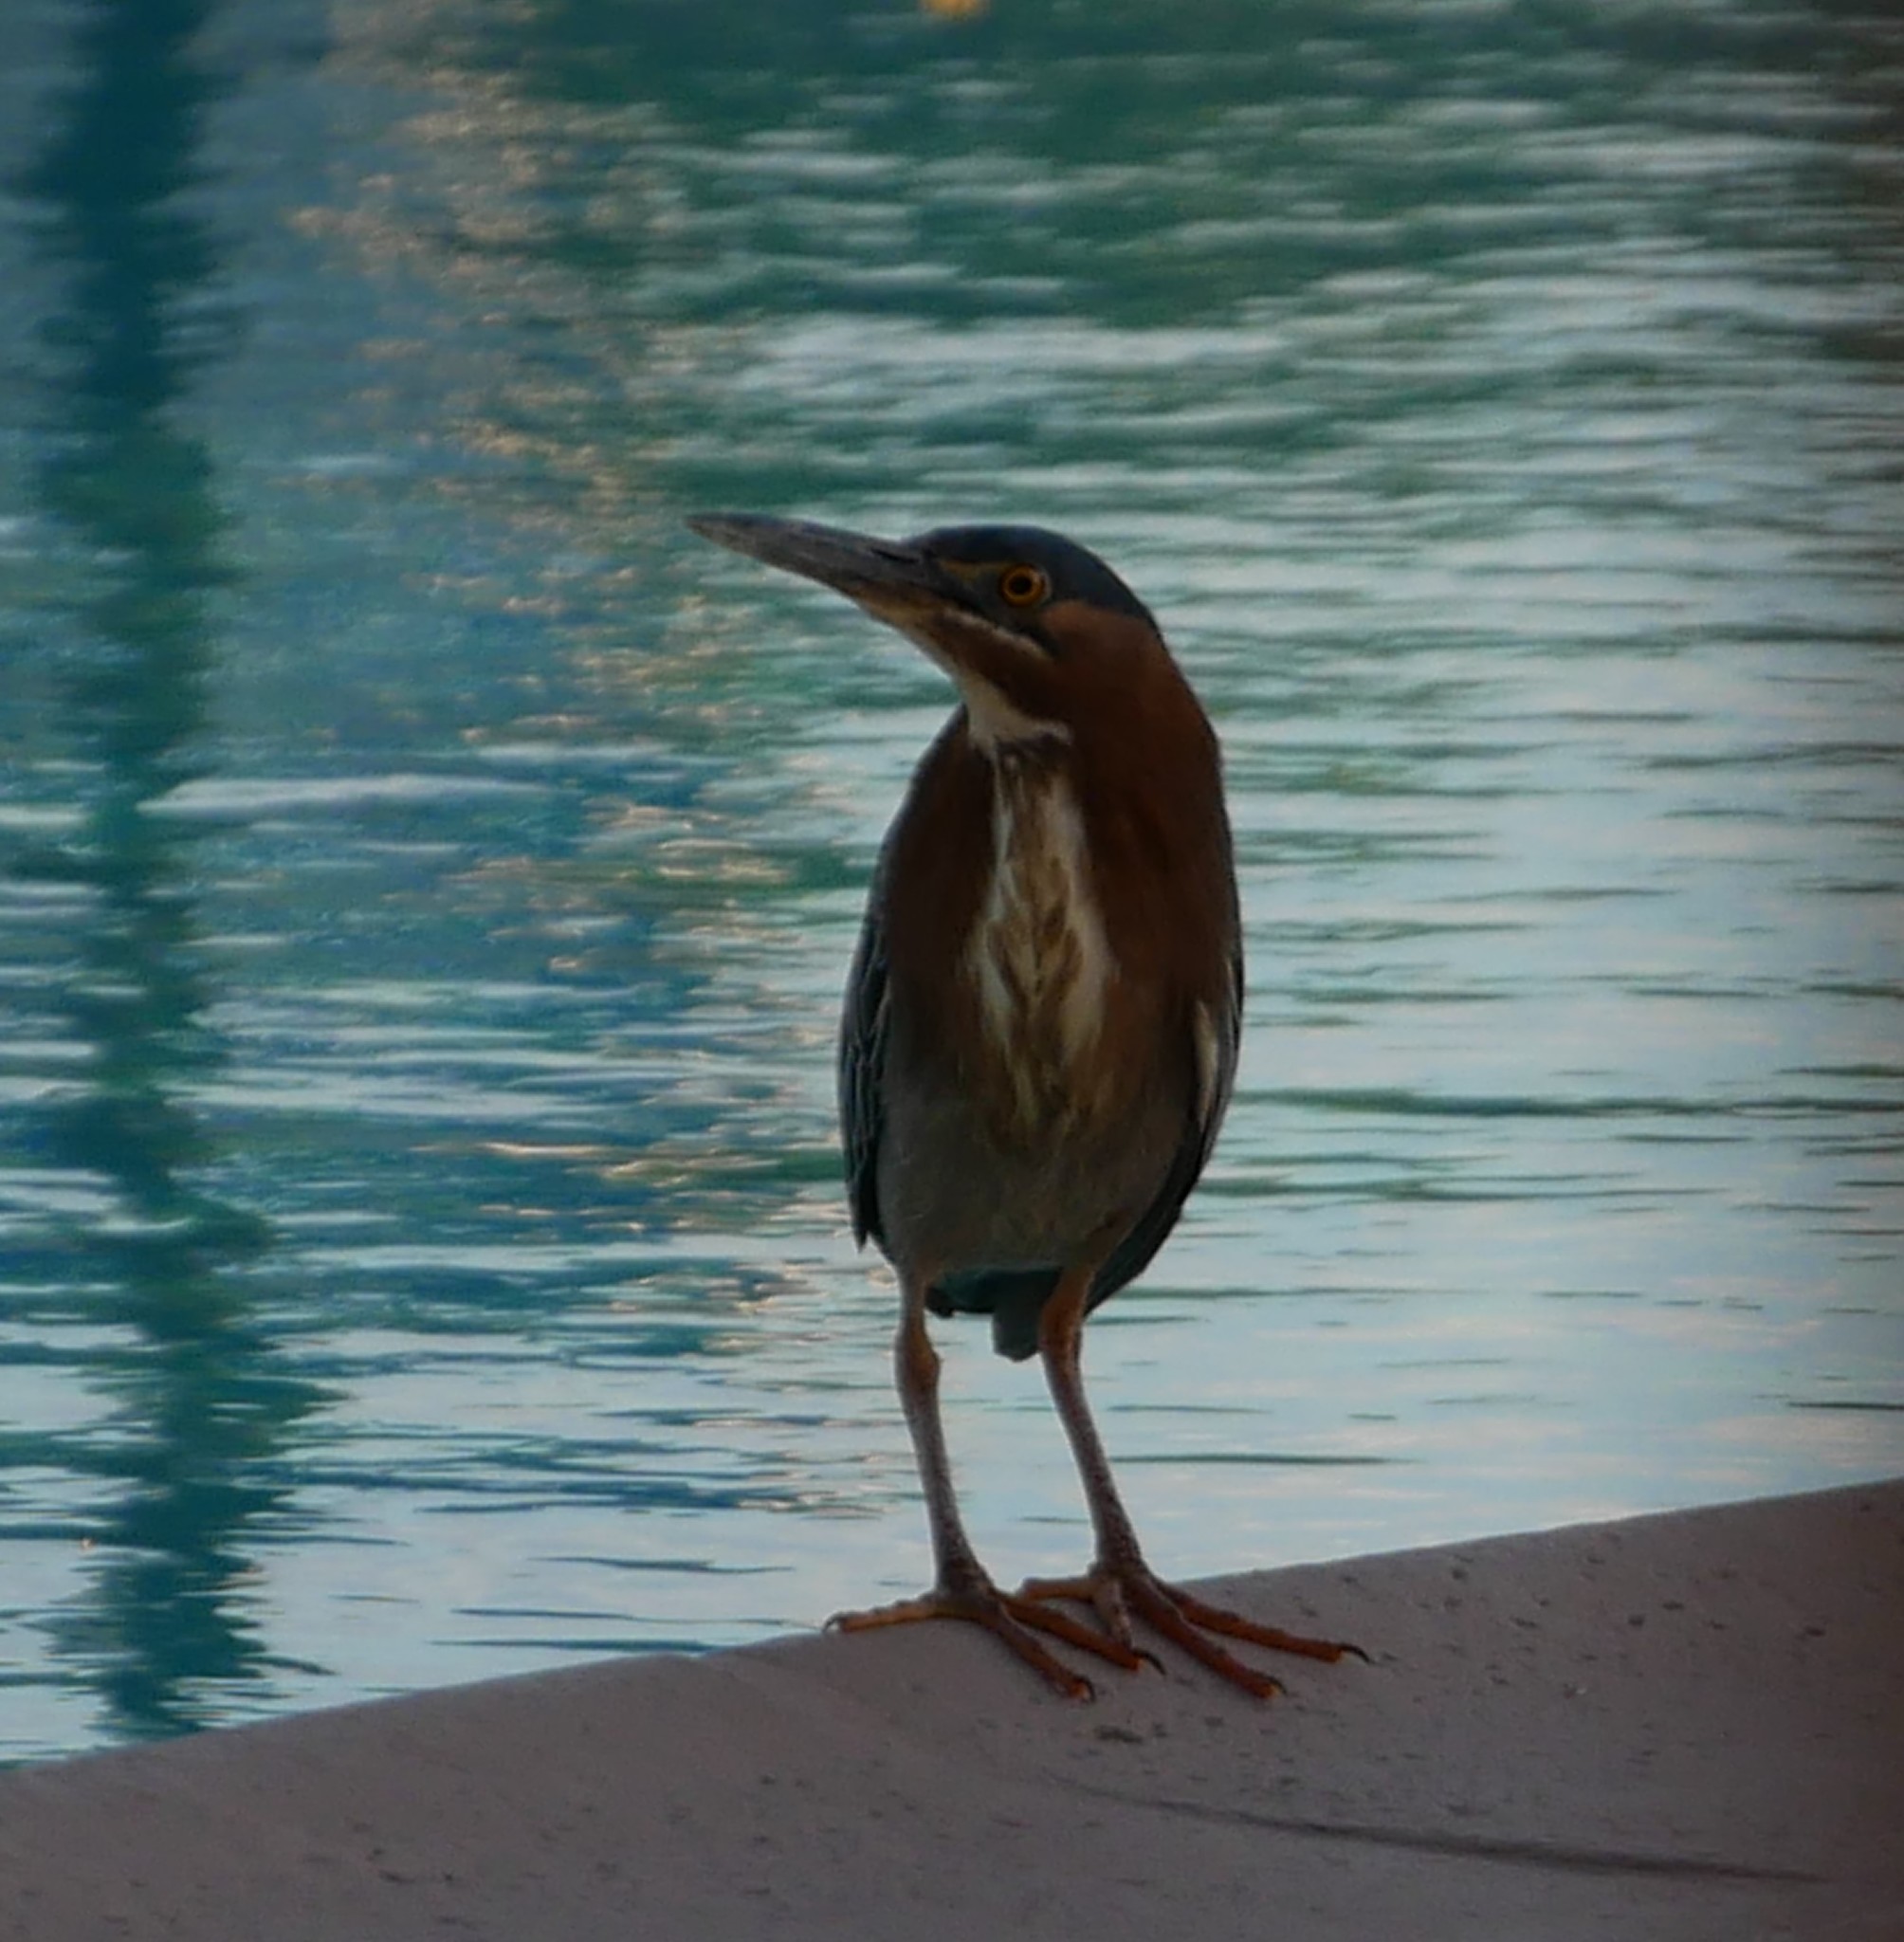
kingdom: Animalia
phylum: Chordata
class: Aves
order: Pelecaniformes
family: Ardeidae
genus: Butorides
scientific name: Butorides virescens
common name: Green heron
